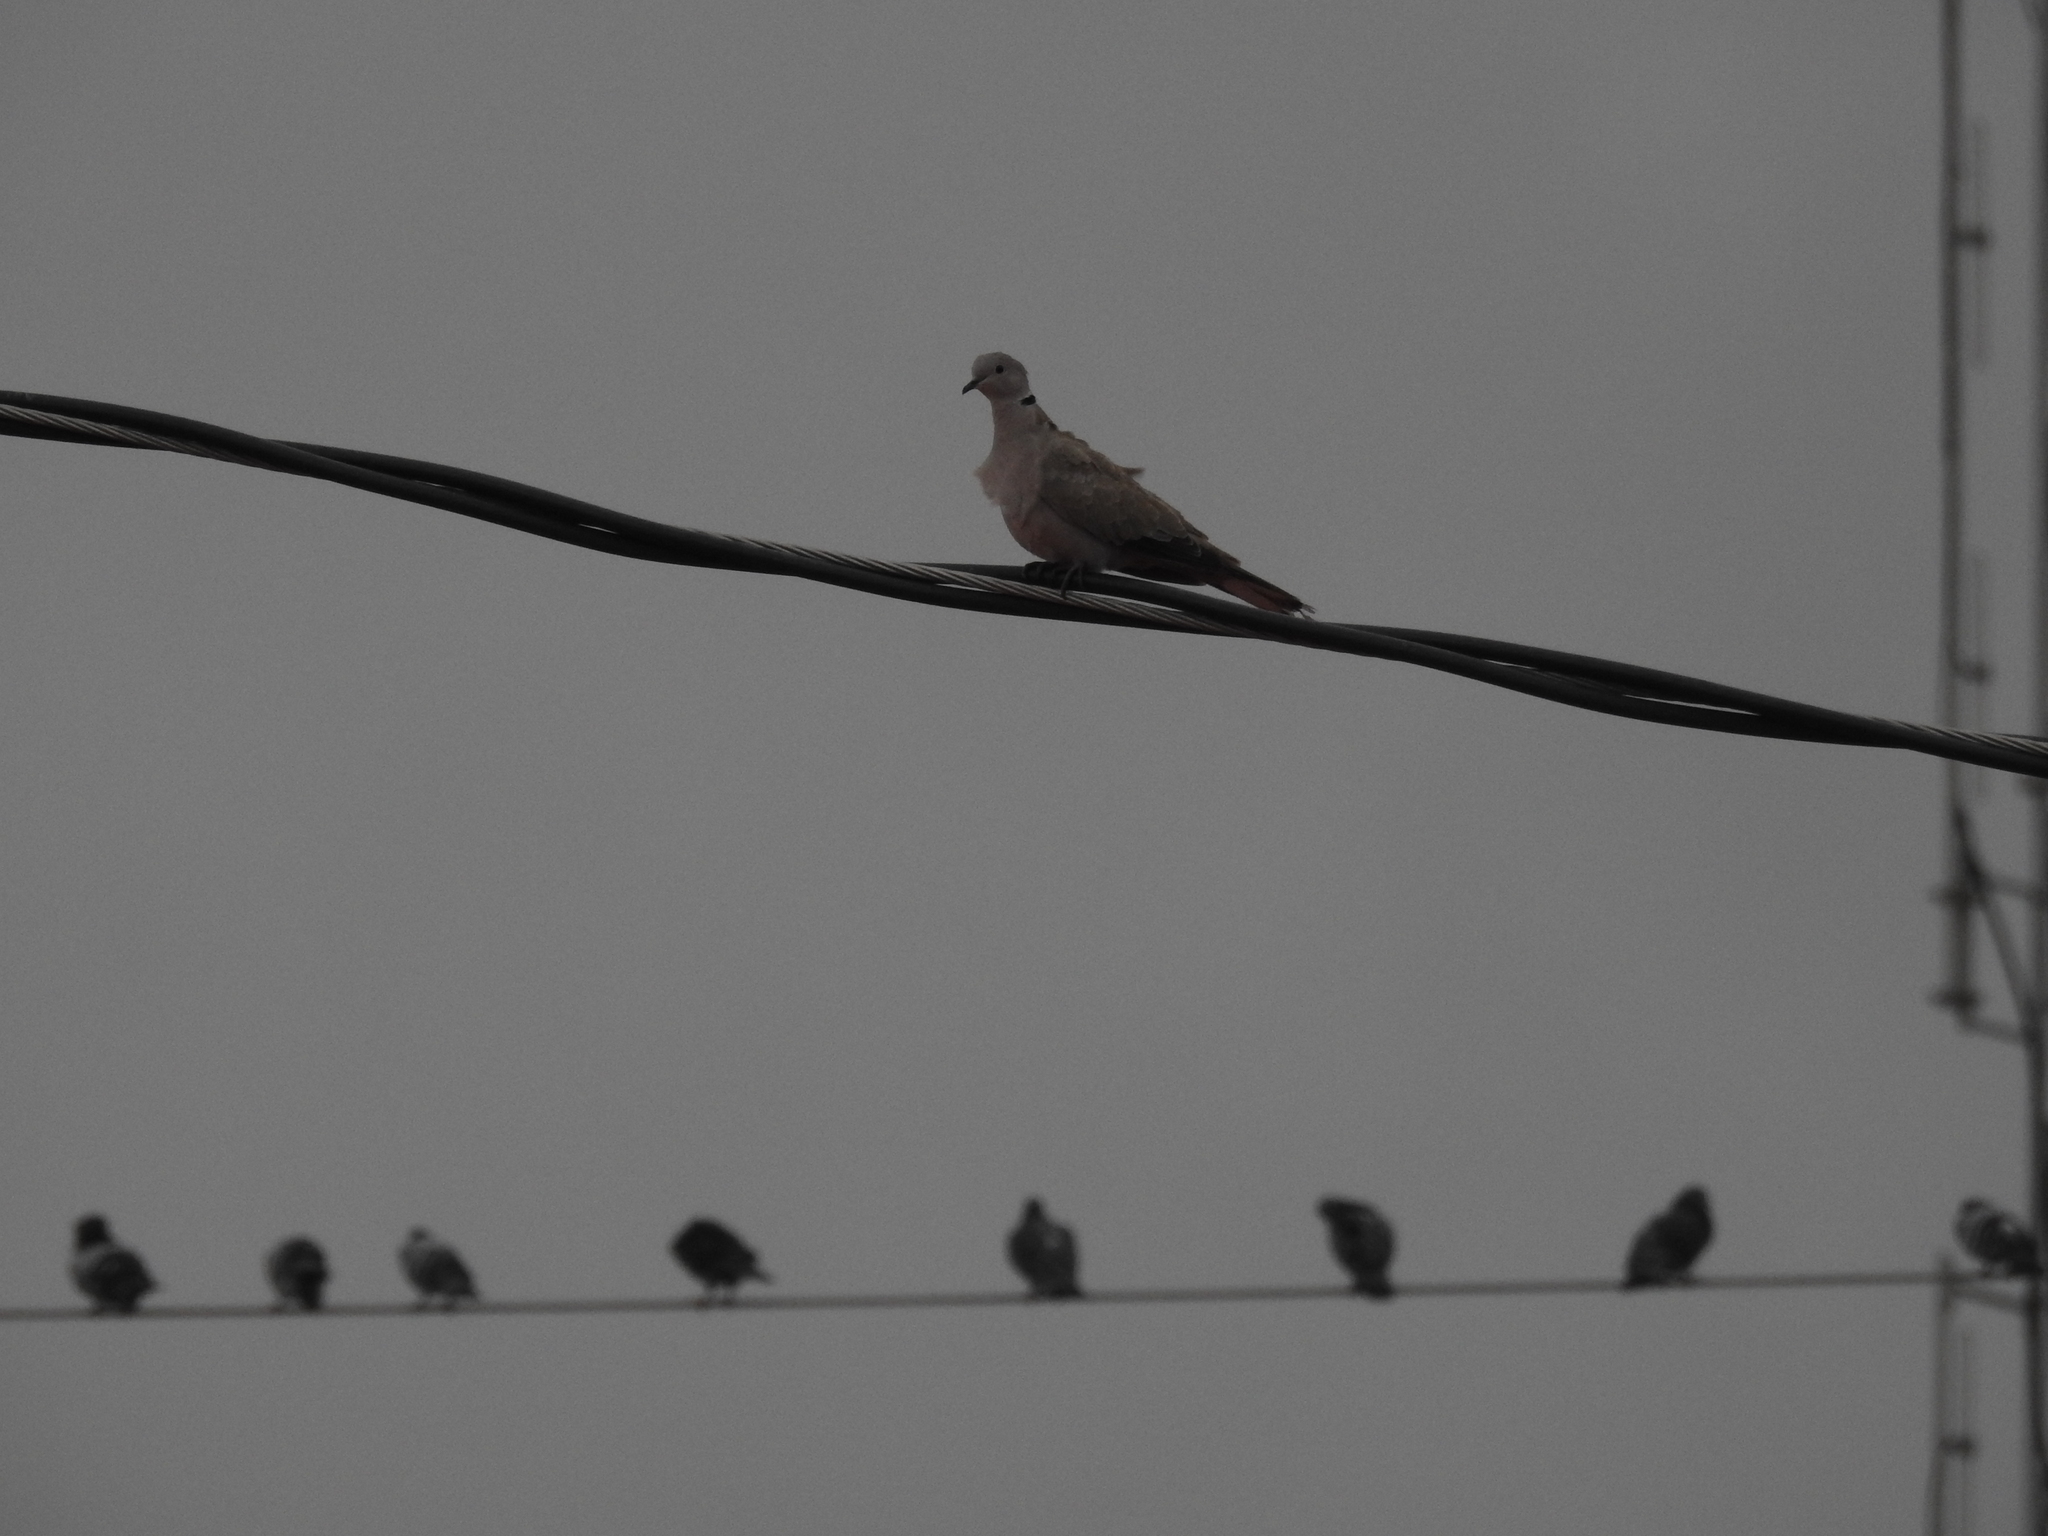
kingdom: Animalia
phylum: Chordata
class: Aves
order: Columbiformes
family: Columbidae
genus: Streptopelia
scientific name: Streptopelia decaocto
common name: Eurasian collared dove
